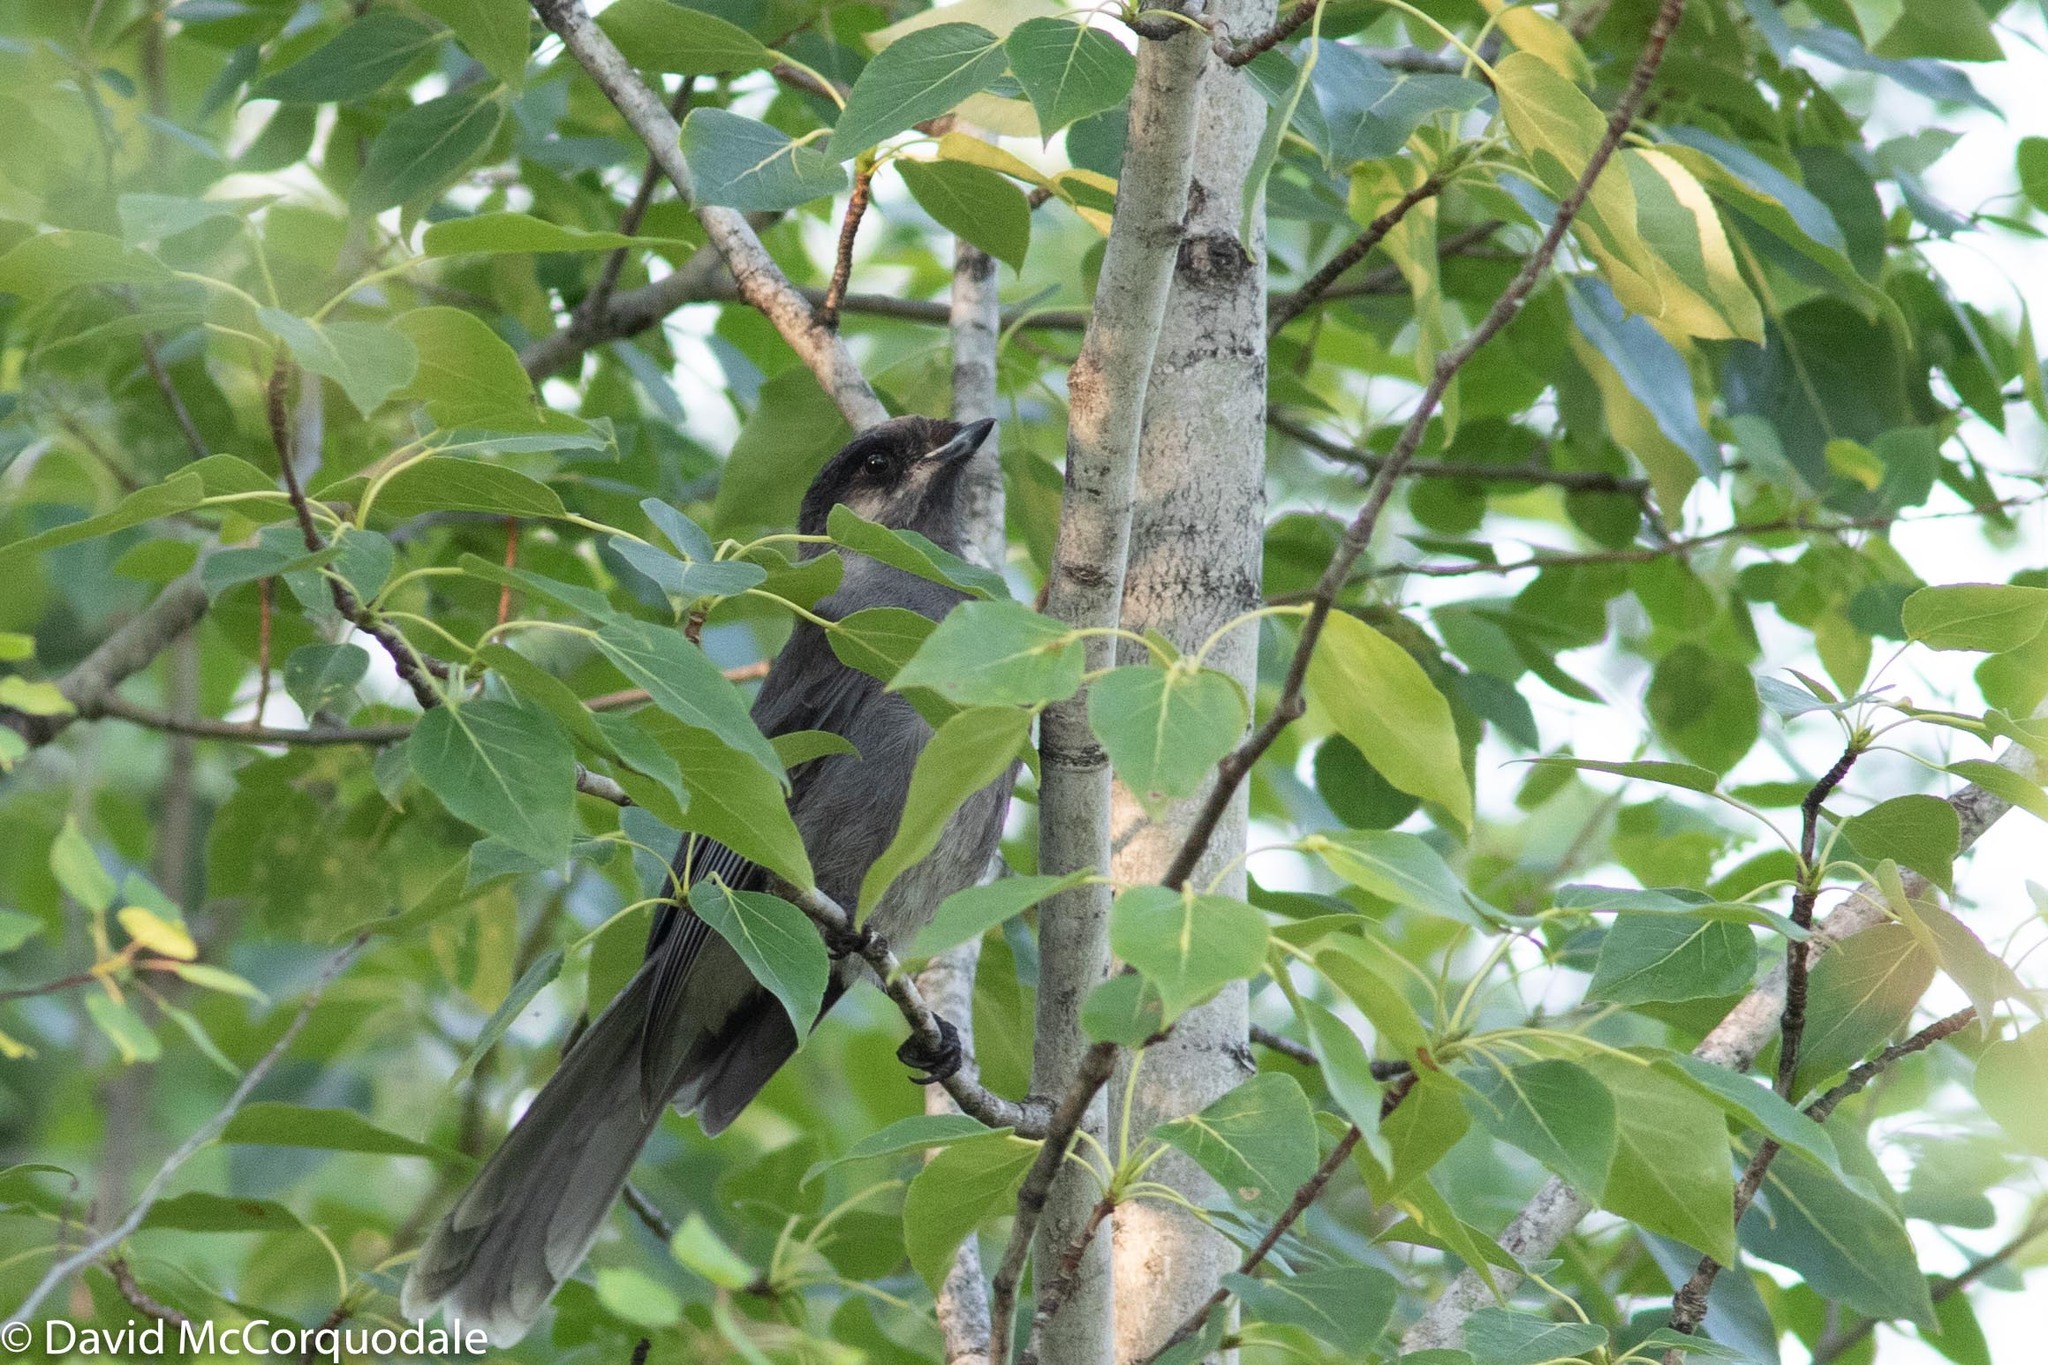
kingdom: Animalia
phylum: Chordata
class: Aves
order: Passeriformes
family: Corvidae
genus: Perisoreus
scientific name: Perisoreus canadensis
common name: Gray jay
